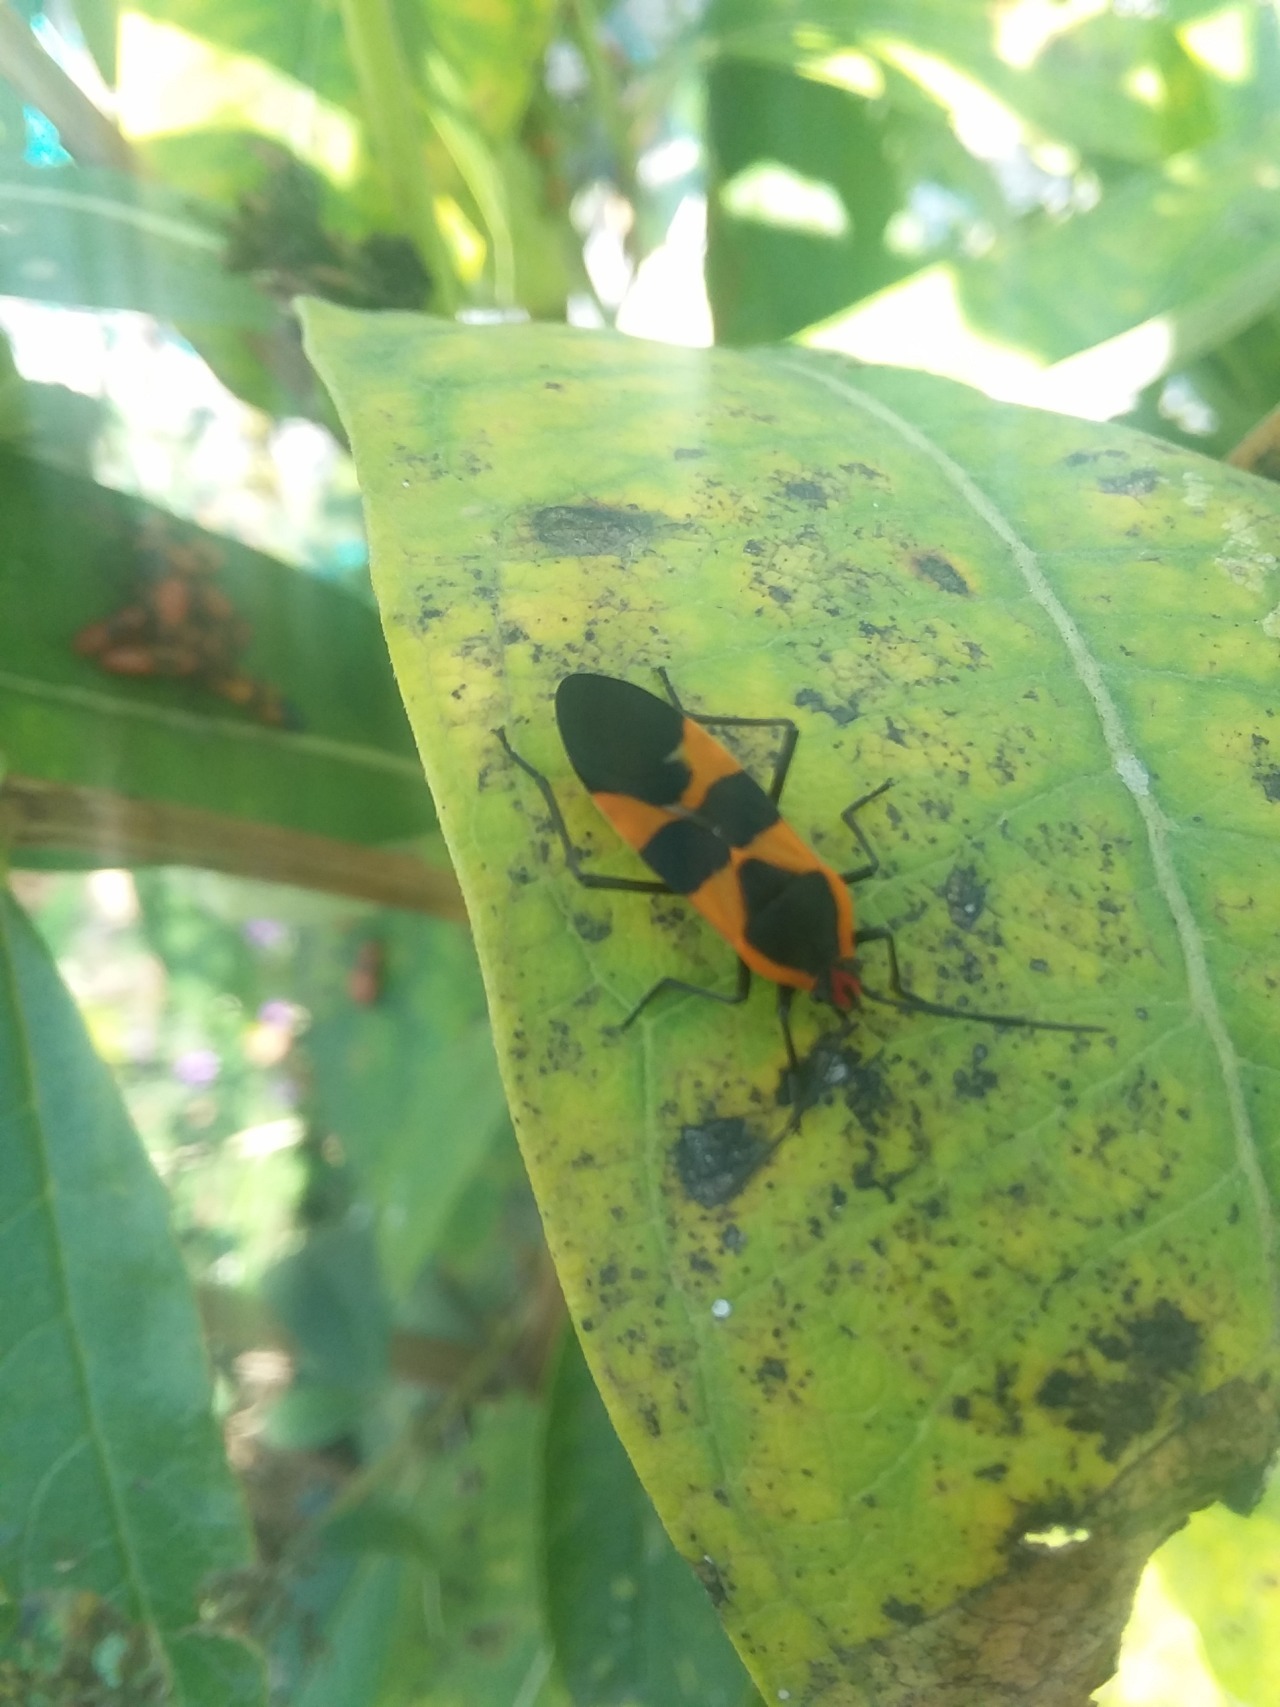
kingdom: Animalia
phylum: Arthropoda
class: Insecta
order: Hemiptera
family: Lygaeidae
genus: Oncopeltus
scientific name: Oncopeltus fasciatus
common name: Large milkweed bug
